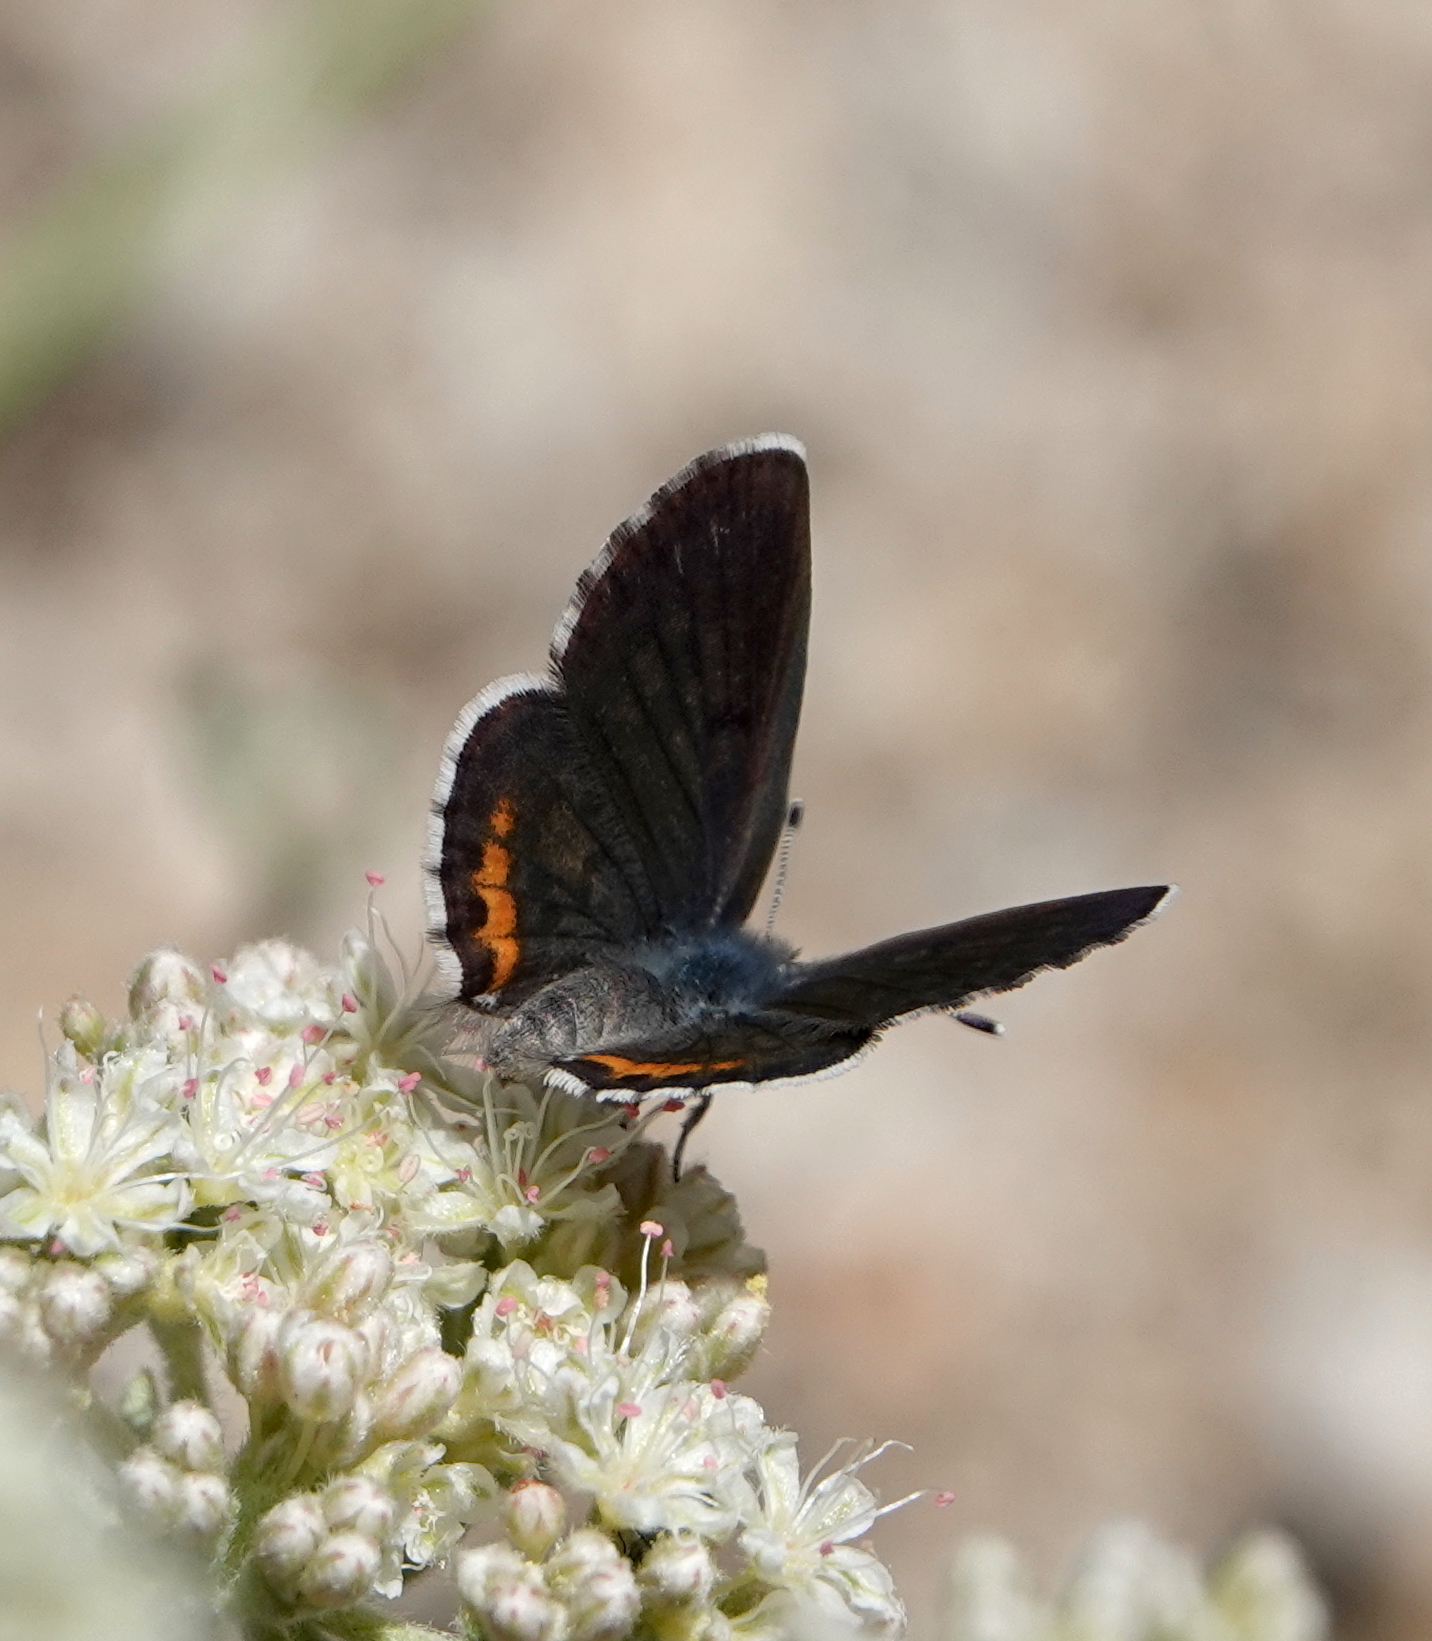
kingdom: Animalia
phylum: Arthropoda
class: Insecta
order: Lepidoptera
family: Lycaenidae
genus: Euphilotes
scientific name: Euphilotes mojave
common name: Mojave blue
